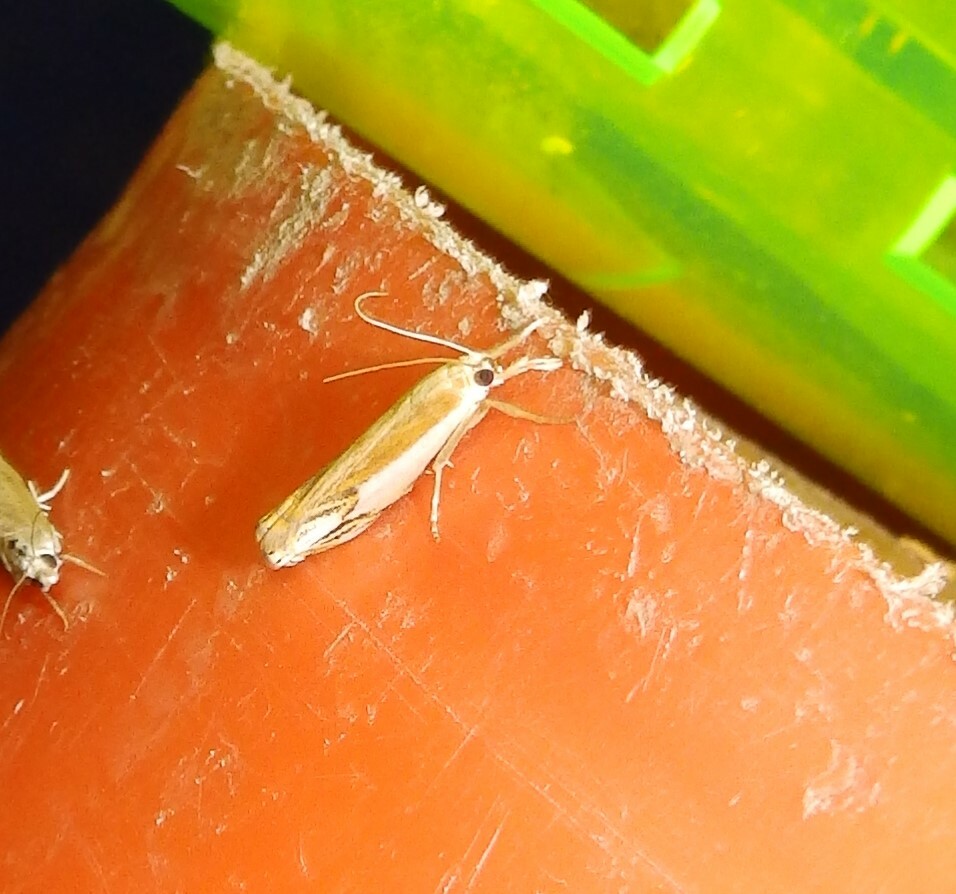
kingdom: Animalia
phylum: Arthropoda
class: Insecta
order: Lepidoptera
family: Crambidae
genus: Crambus
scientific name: Crambus agitatellus
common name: Double-banded grass-veneer
